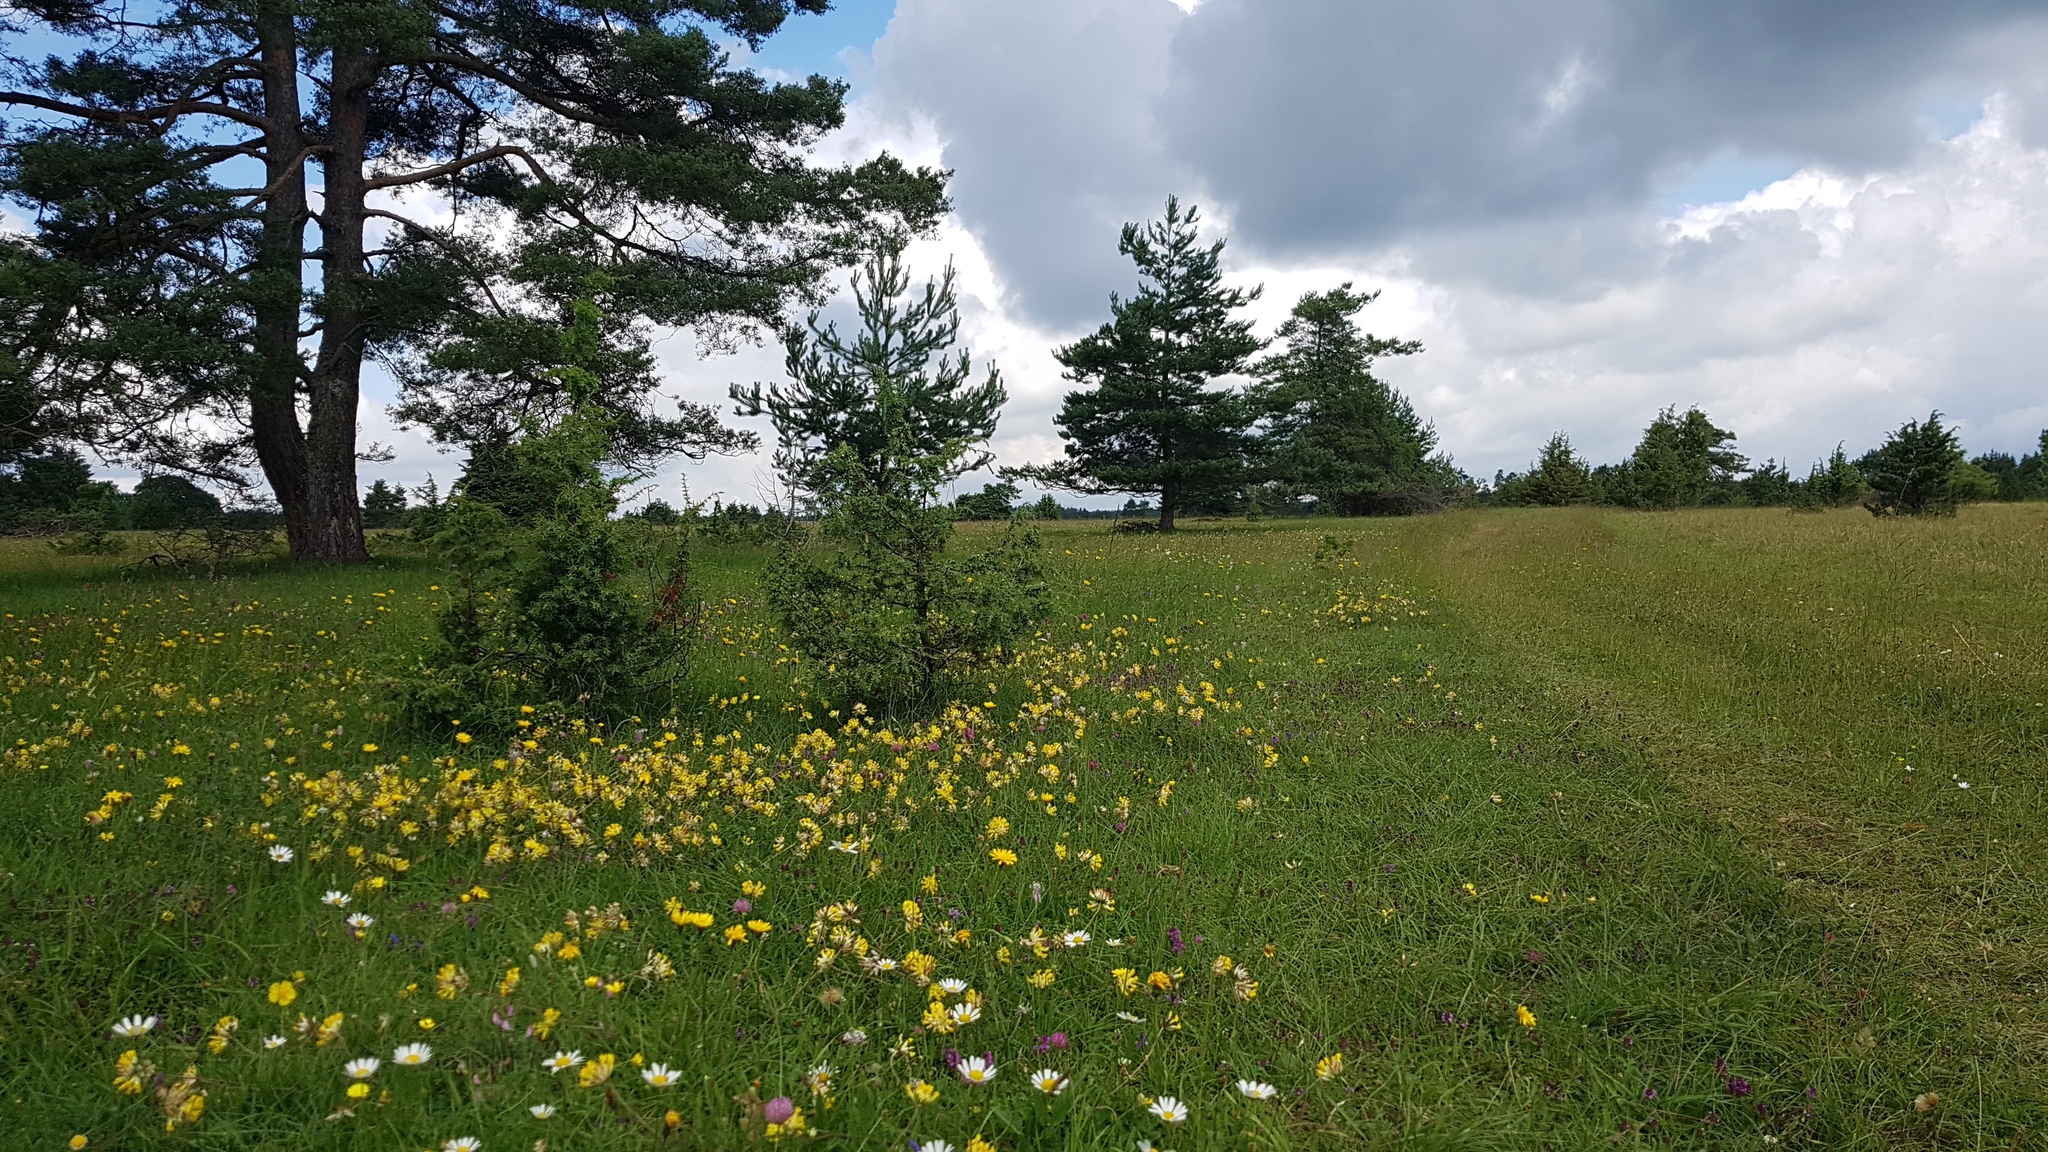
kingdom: Plantae
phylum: Tracheophyta
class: Magnoliopsida
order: Fabales
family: Fabaceae
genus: Anthyllis
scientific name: Anthyllis vulneraria
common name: Kidney vetch
